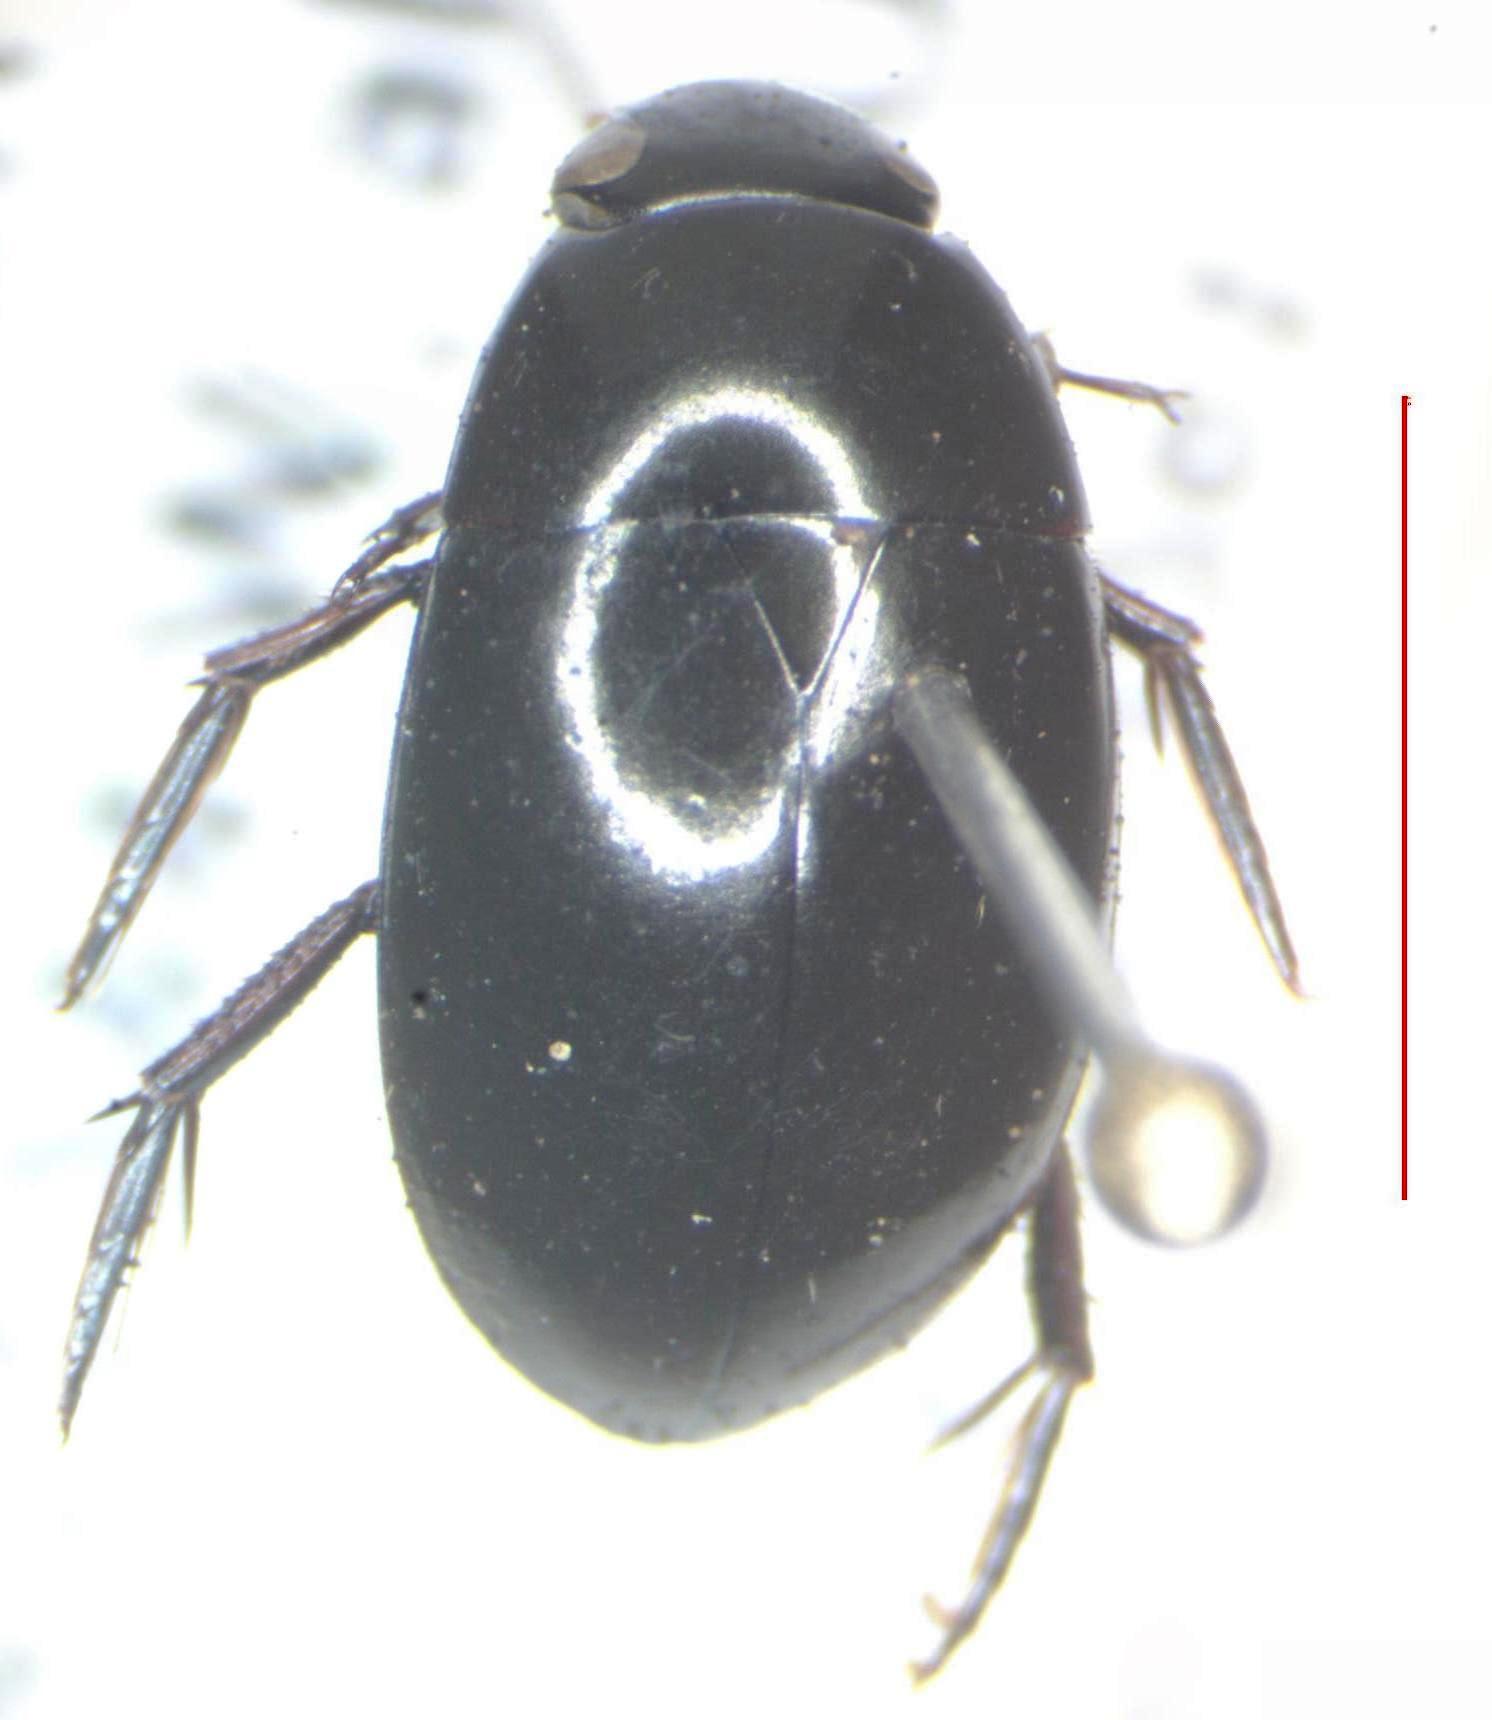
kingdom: Animalia
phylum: Arthropoda
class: Insecta
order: Coleoptera
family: Hydrophilidae
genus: Tropisternus
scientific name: Tropisternus
